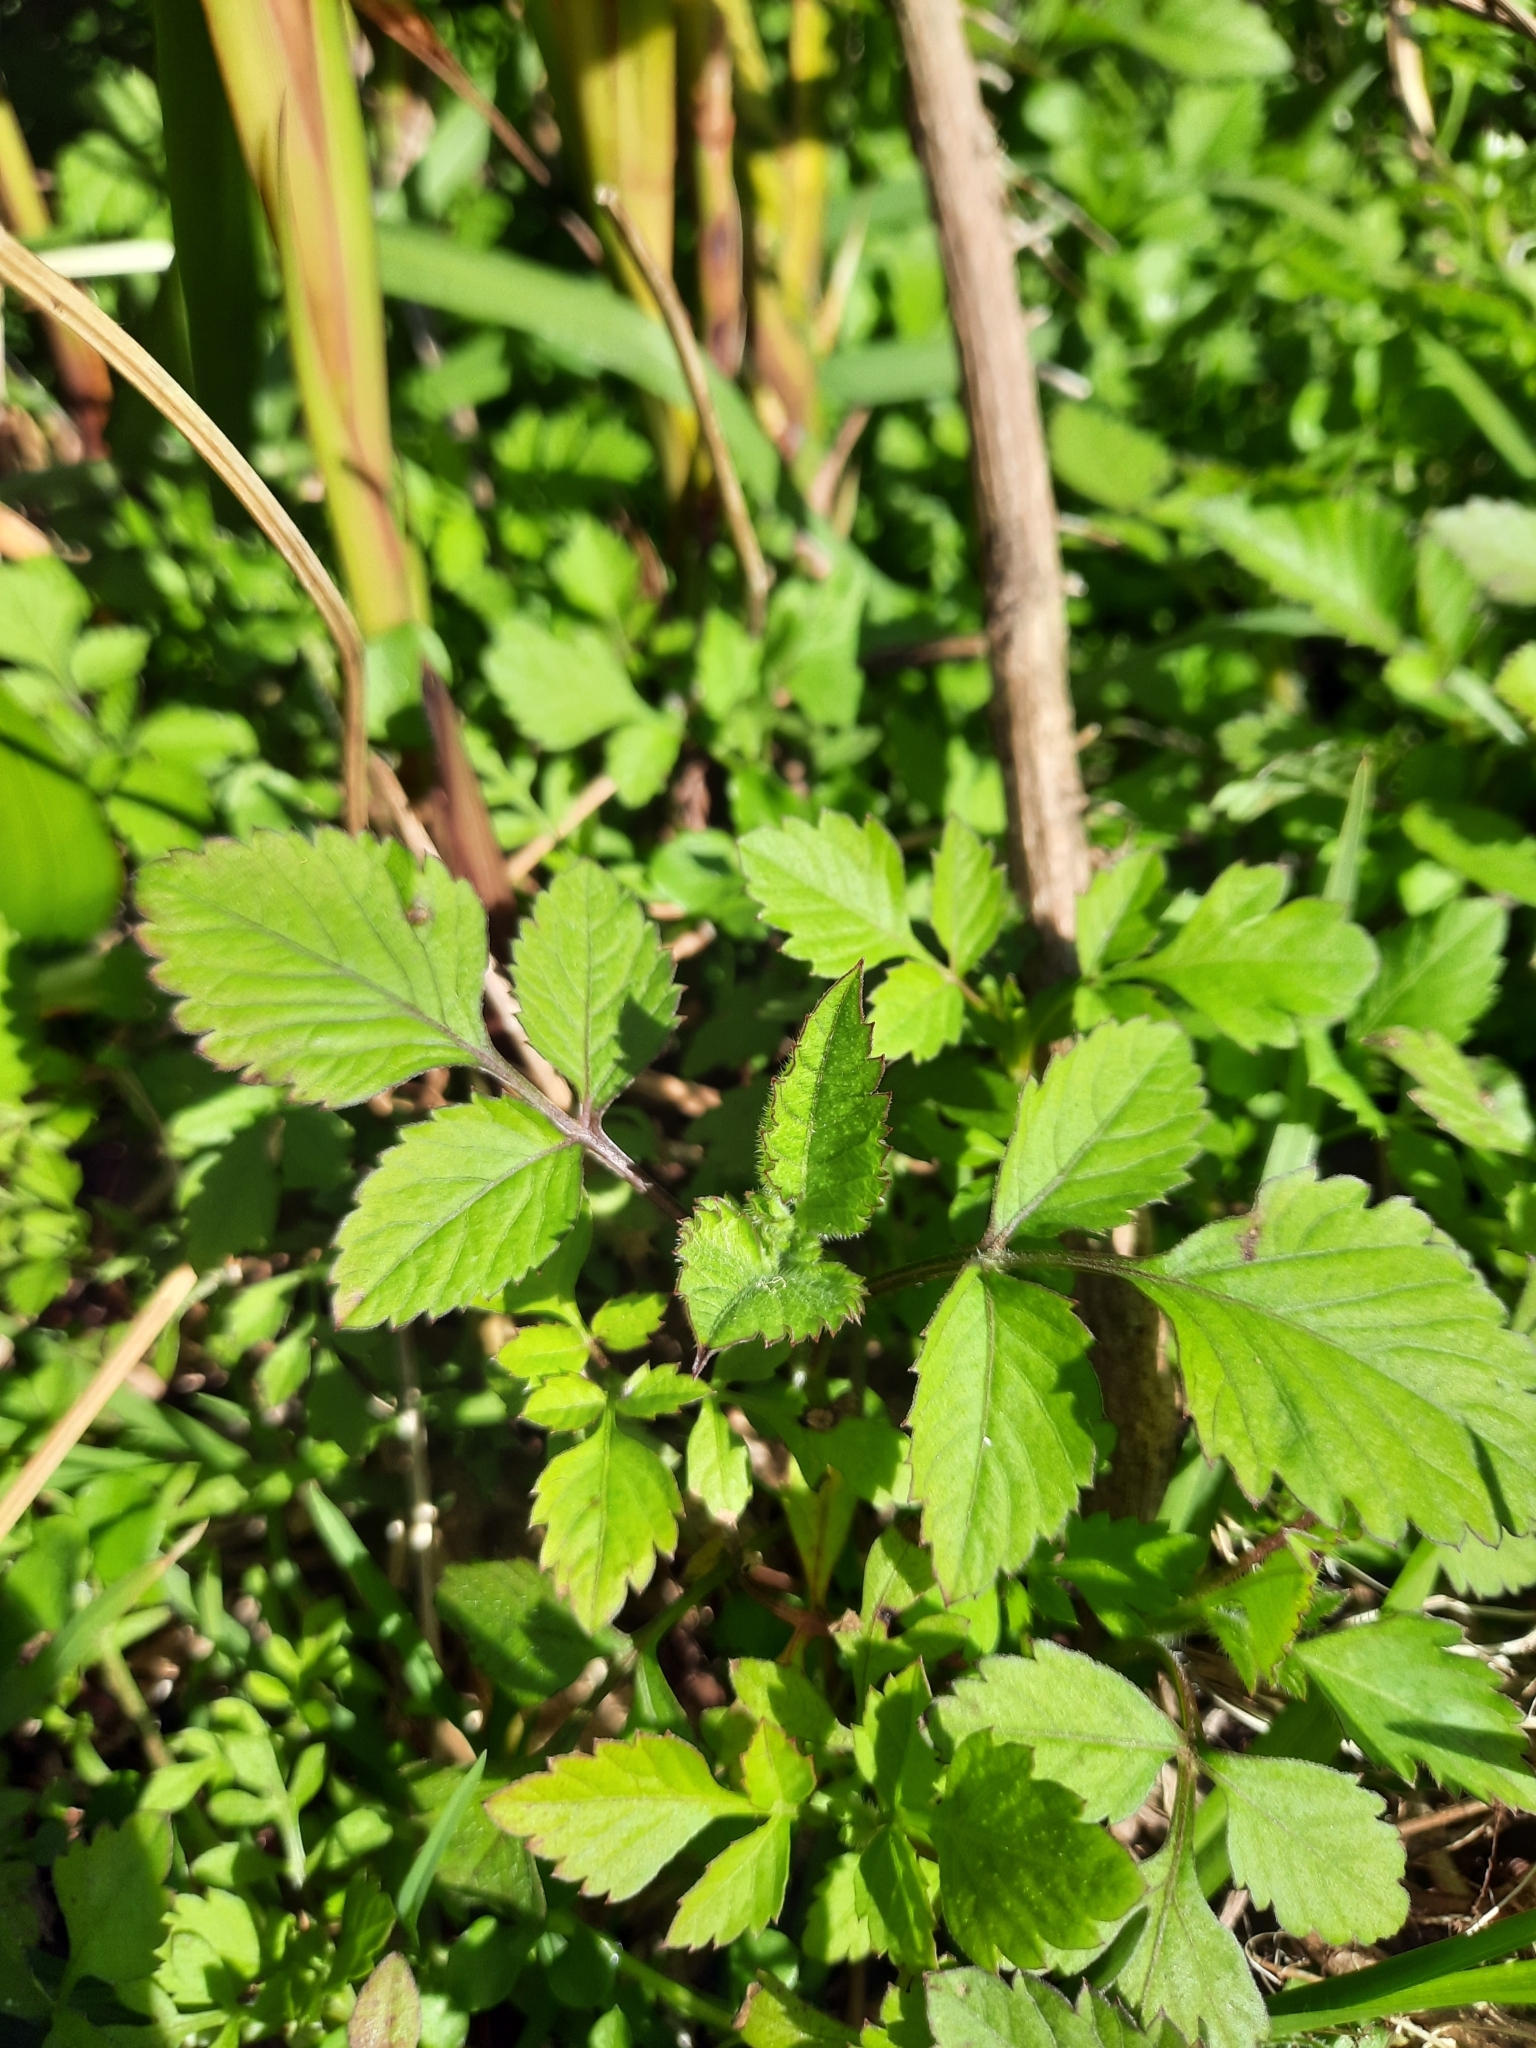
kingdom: Plantae
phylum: Tracheophyta
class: Magnoliopsida
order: Asterales
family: Asteraceae
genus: Bidens
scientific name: Bidens pilosa
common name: Black-jack
